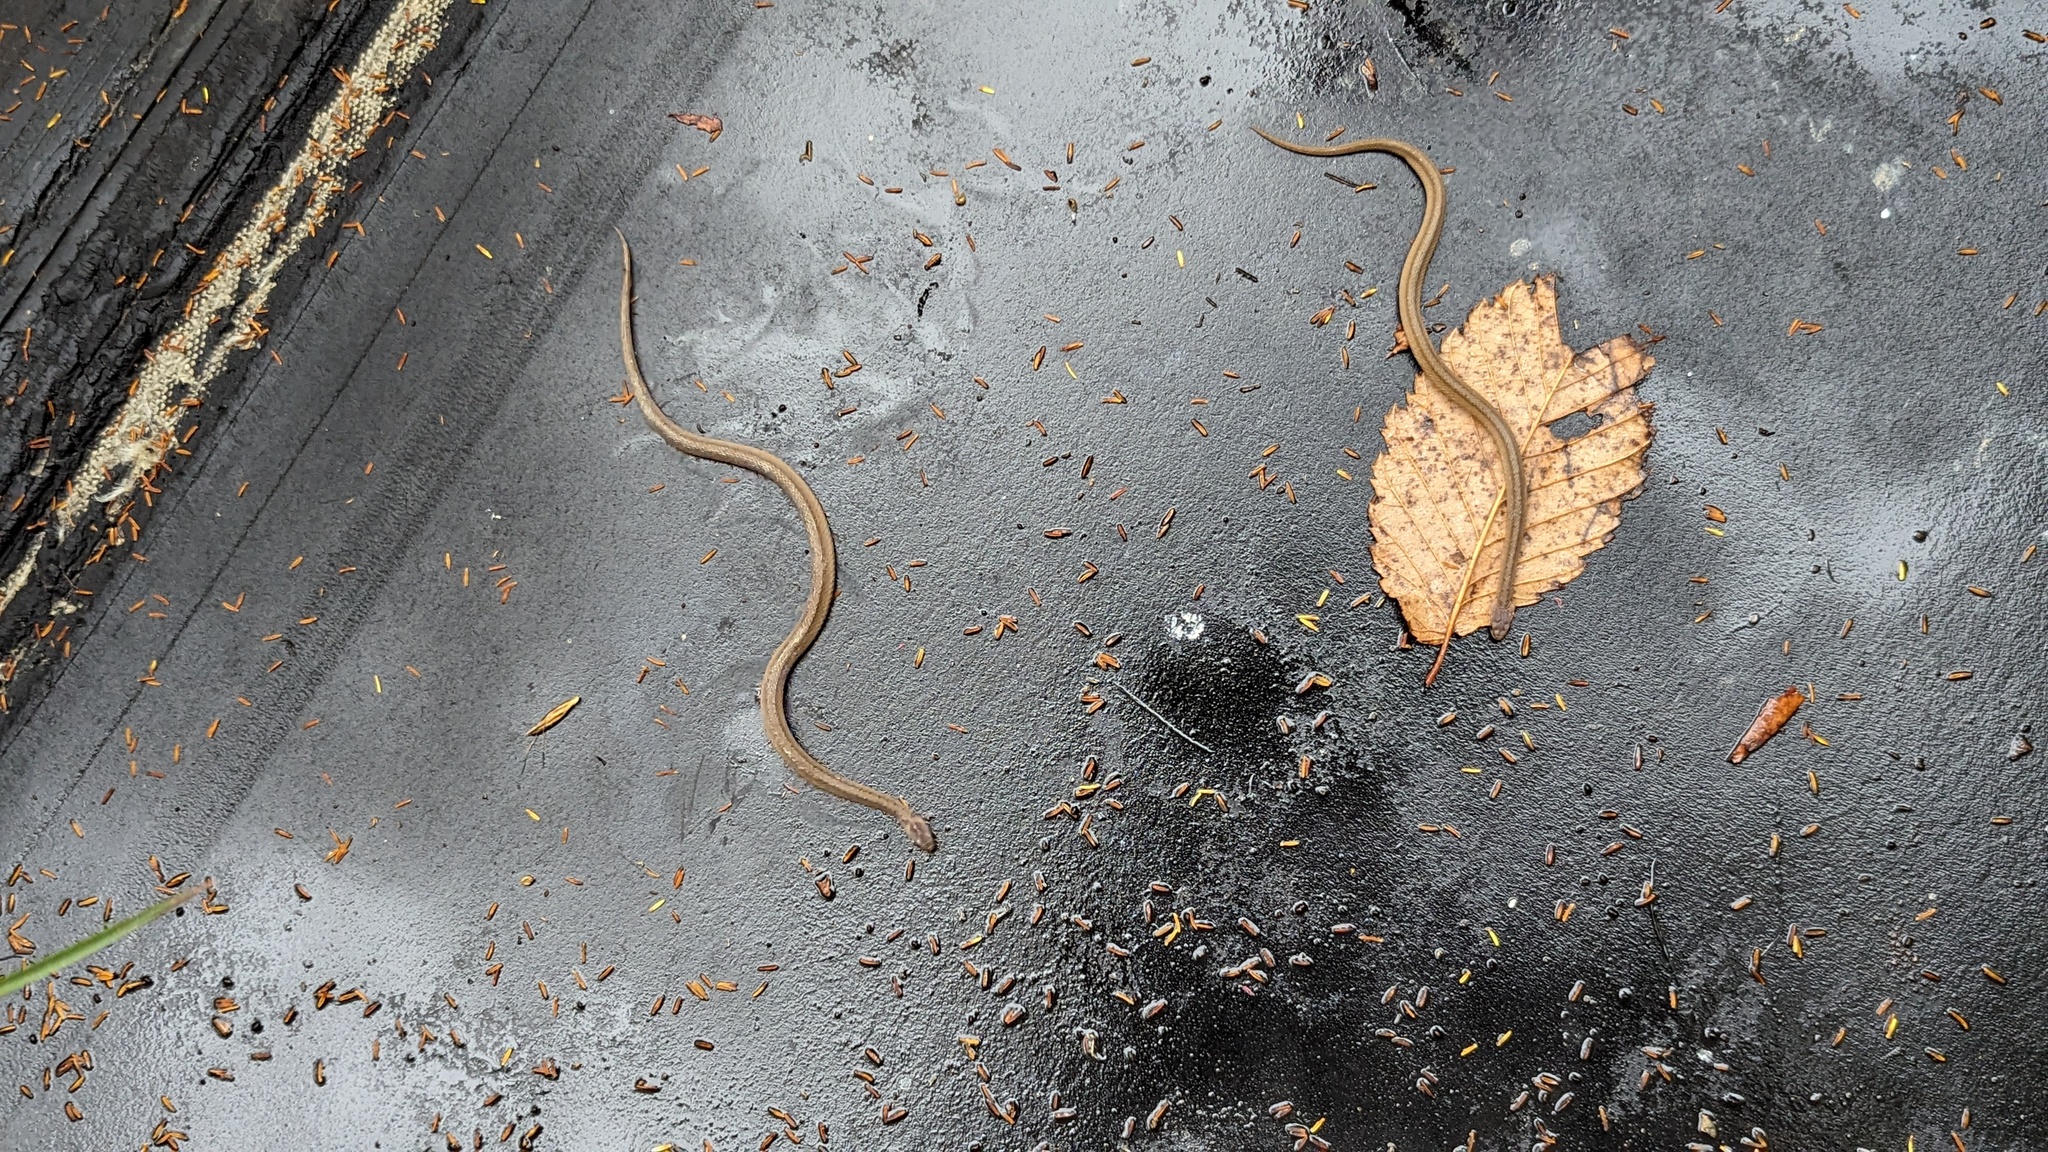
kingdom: Animalia
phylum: Chordata
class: Squamata
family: Colubridae
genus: Storeria
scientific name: Storeria dekayi
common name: (dekay’s) brown snake
